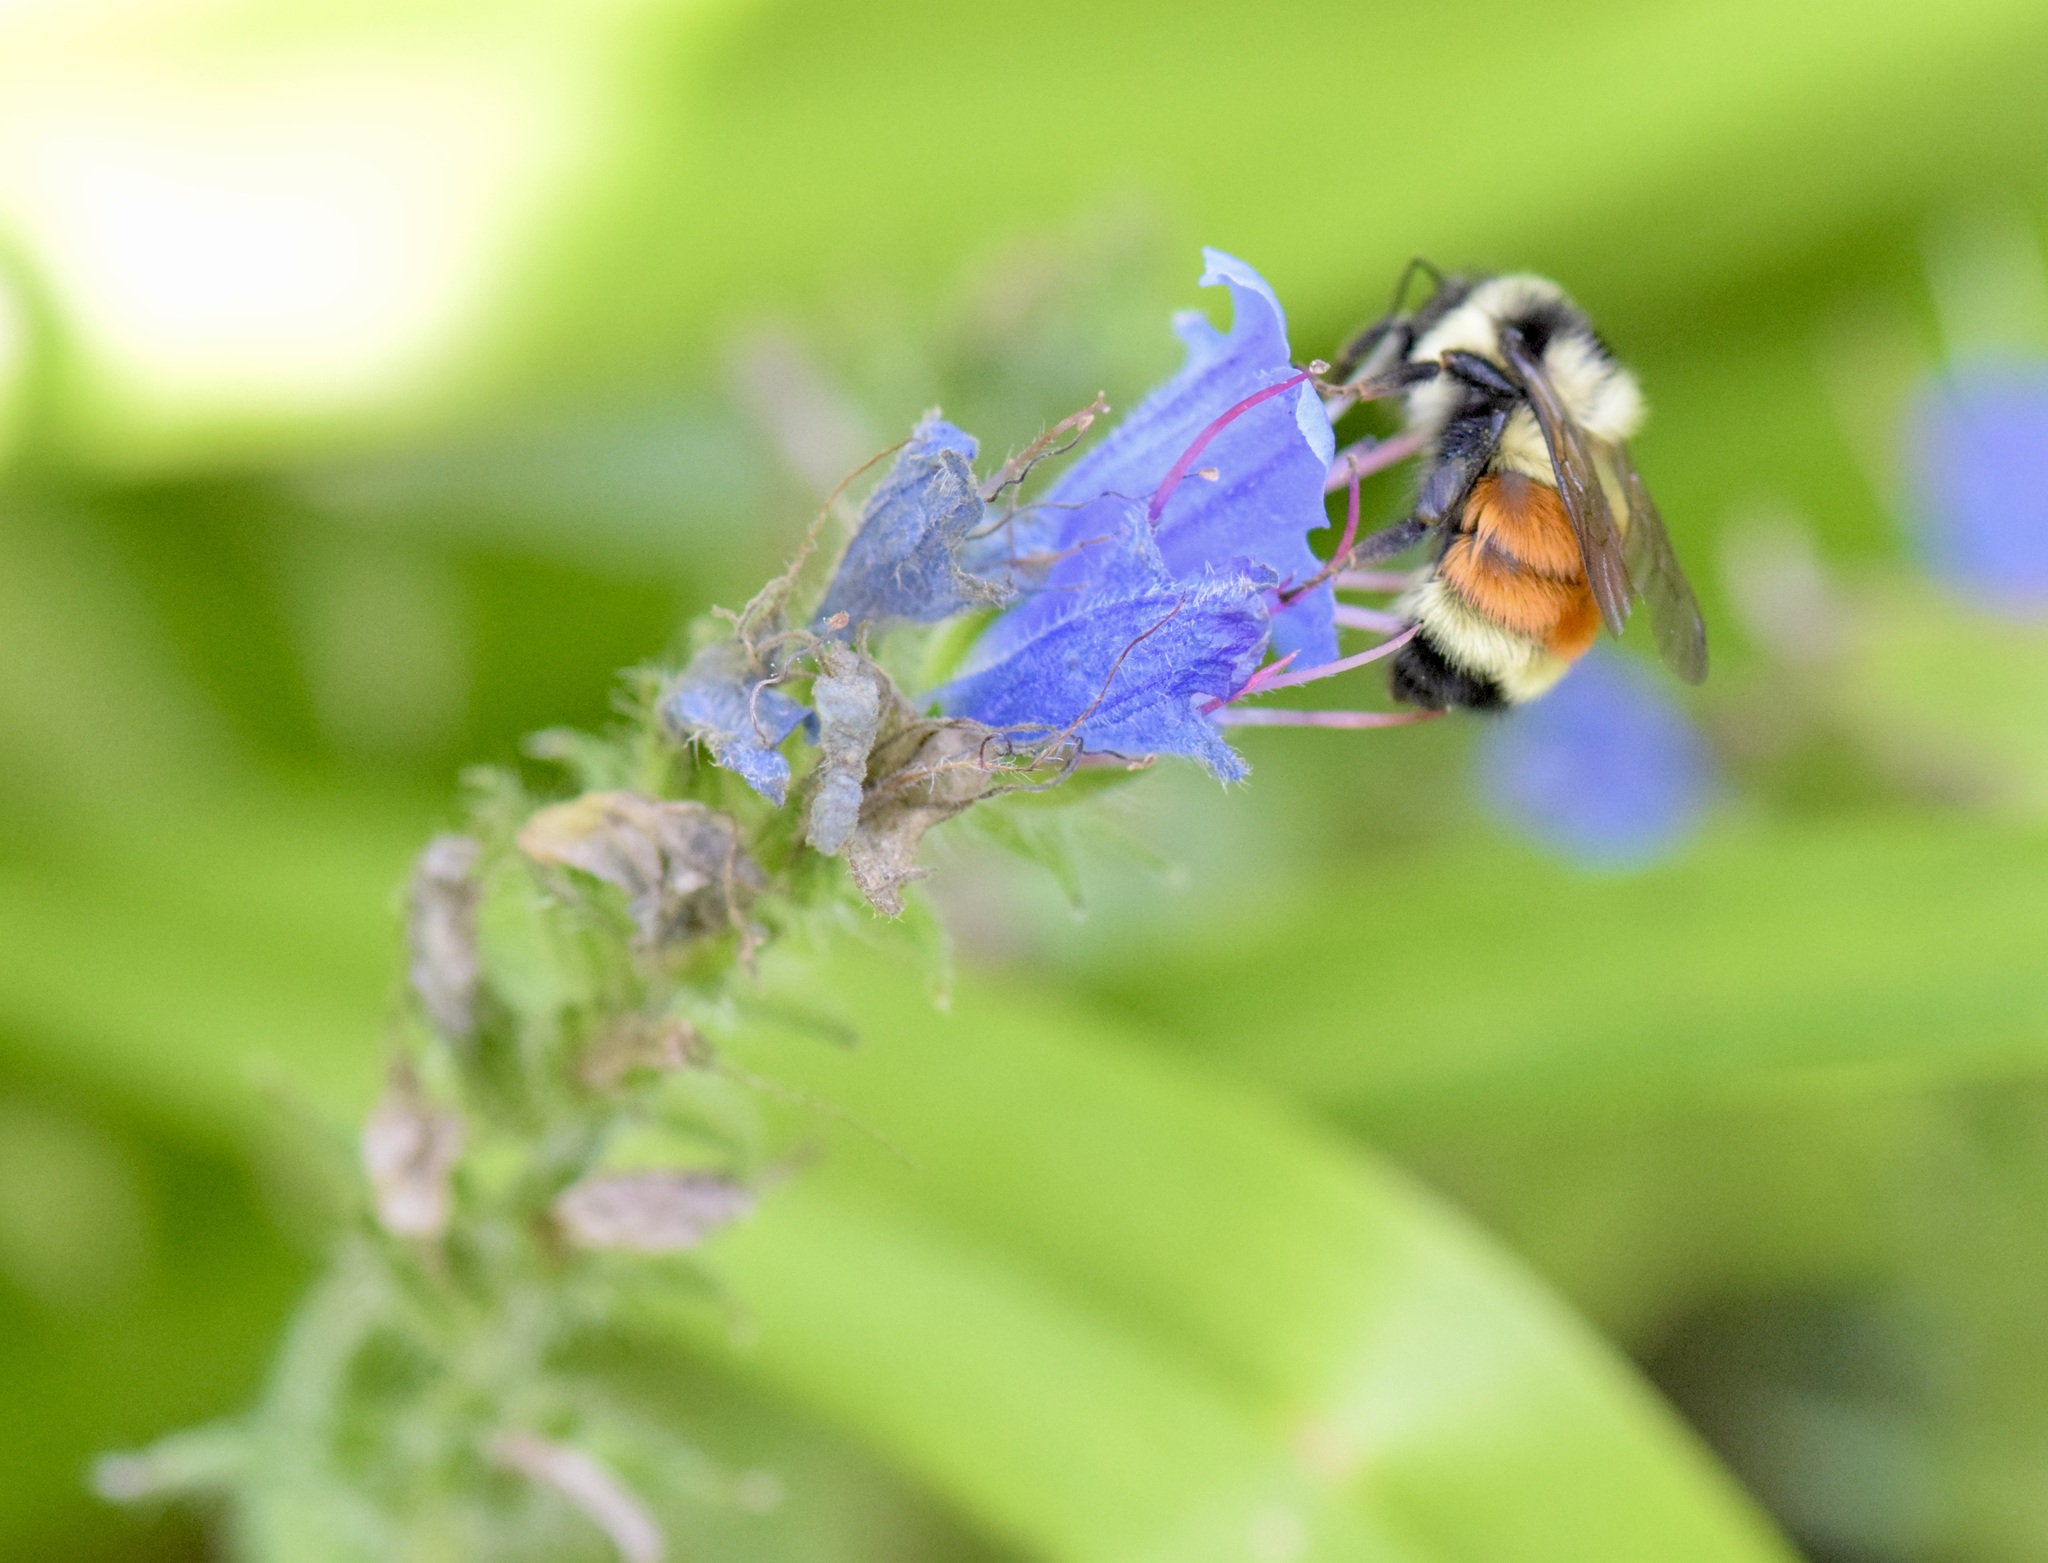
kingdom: Animalia
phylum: Arthropoda
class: Insecta
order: Hymenoptera
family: Apidae
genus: Bombus
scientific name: Bombus ternarius
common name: Tri-colored bumble bee
